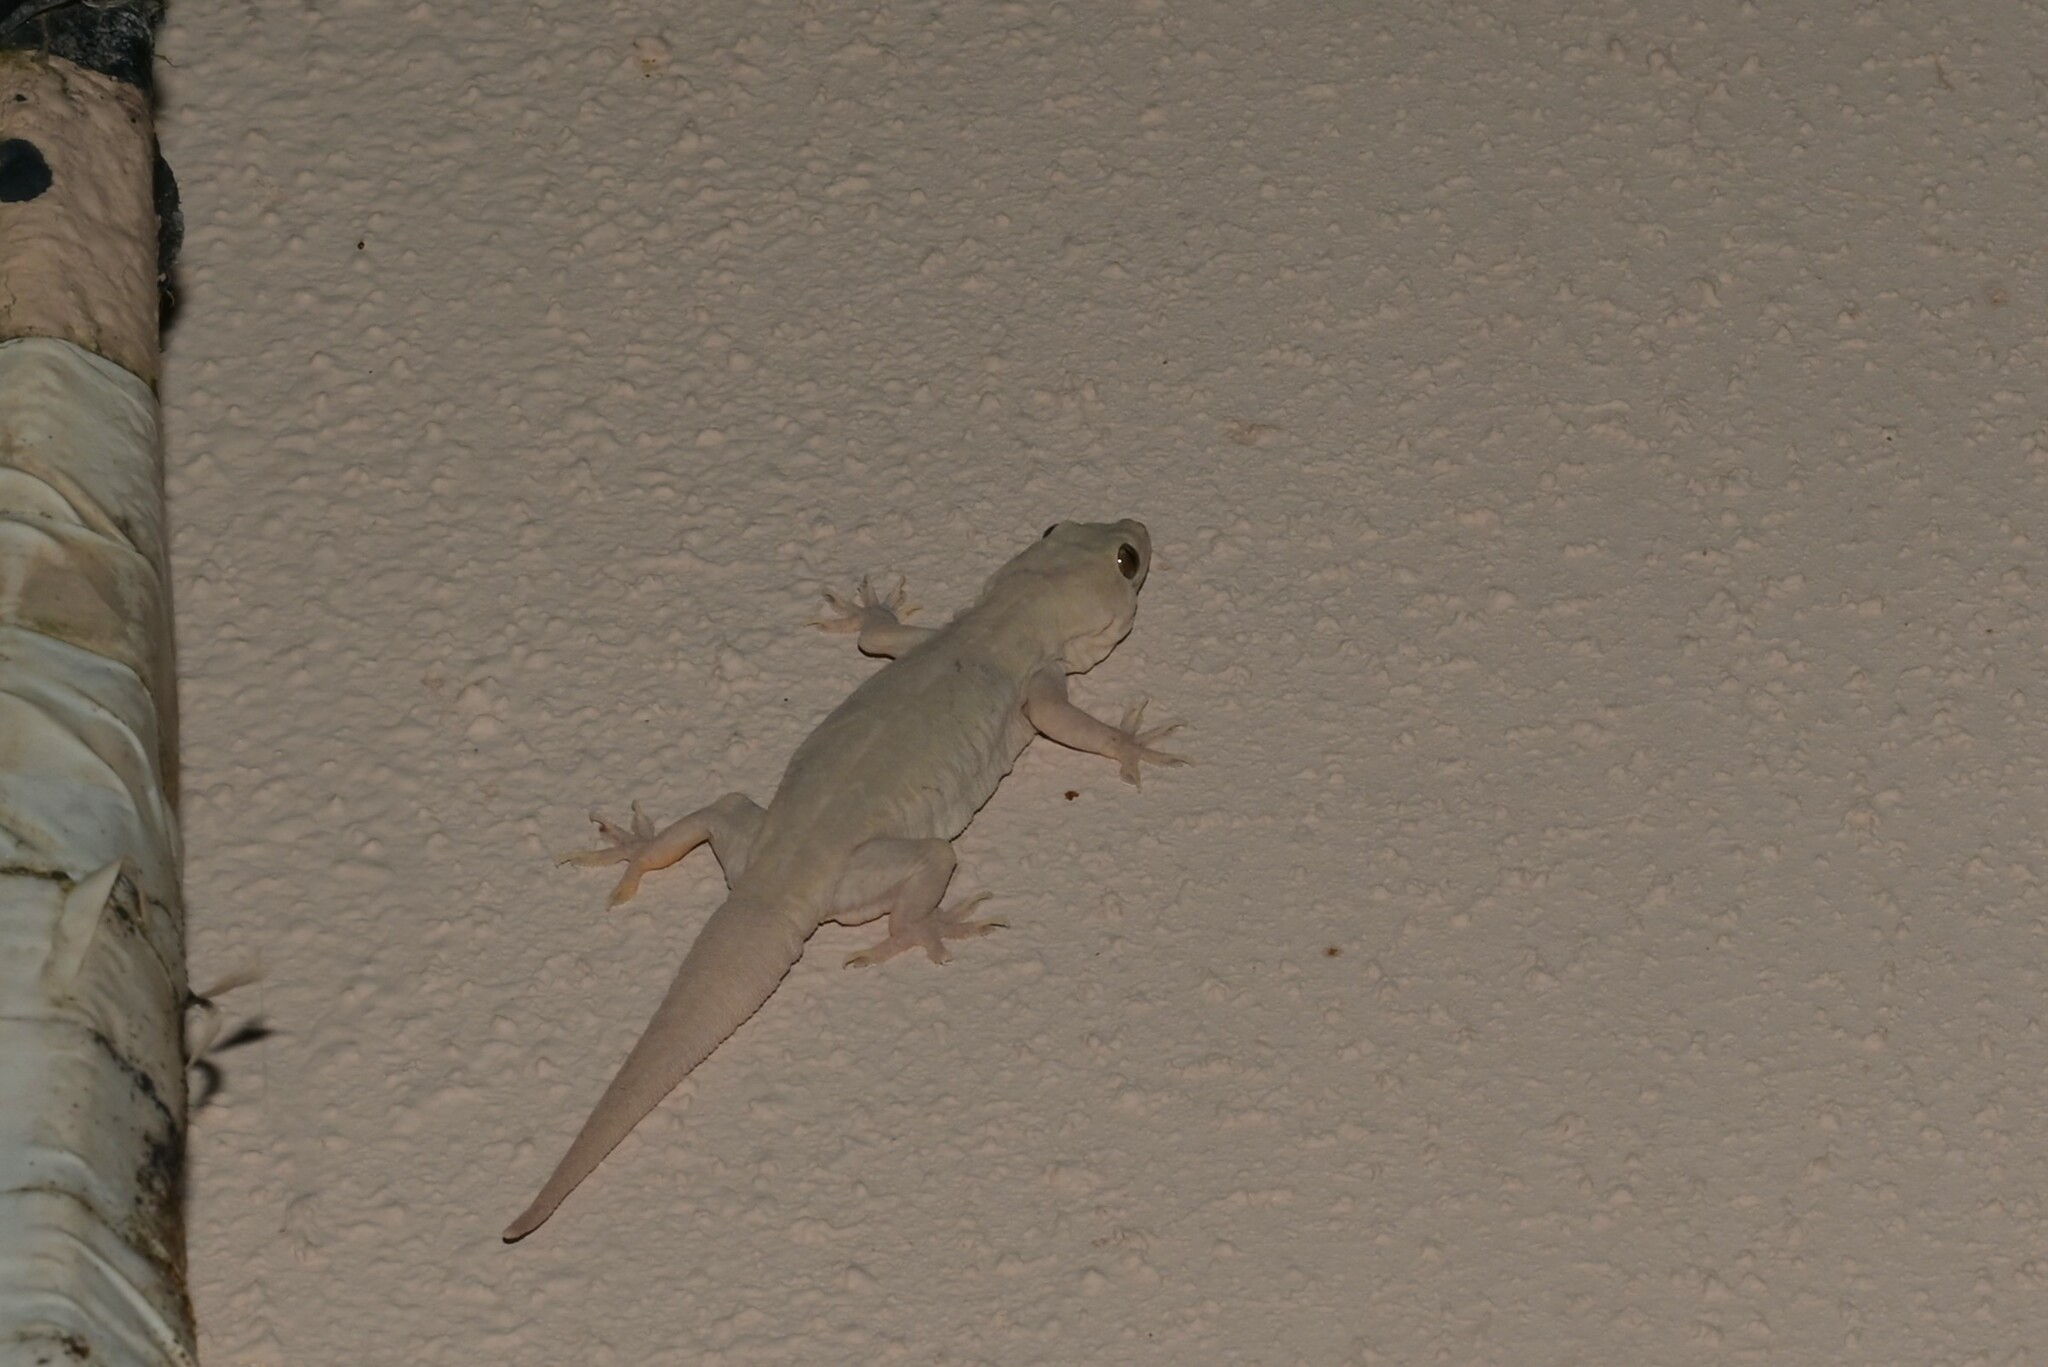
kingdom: Animalia
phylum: Chordata
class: Squamata
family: Gekkonidae
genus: Hemidactylus
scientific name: Hemidactylus flaviviridis
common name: Northern house gecko
